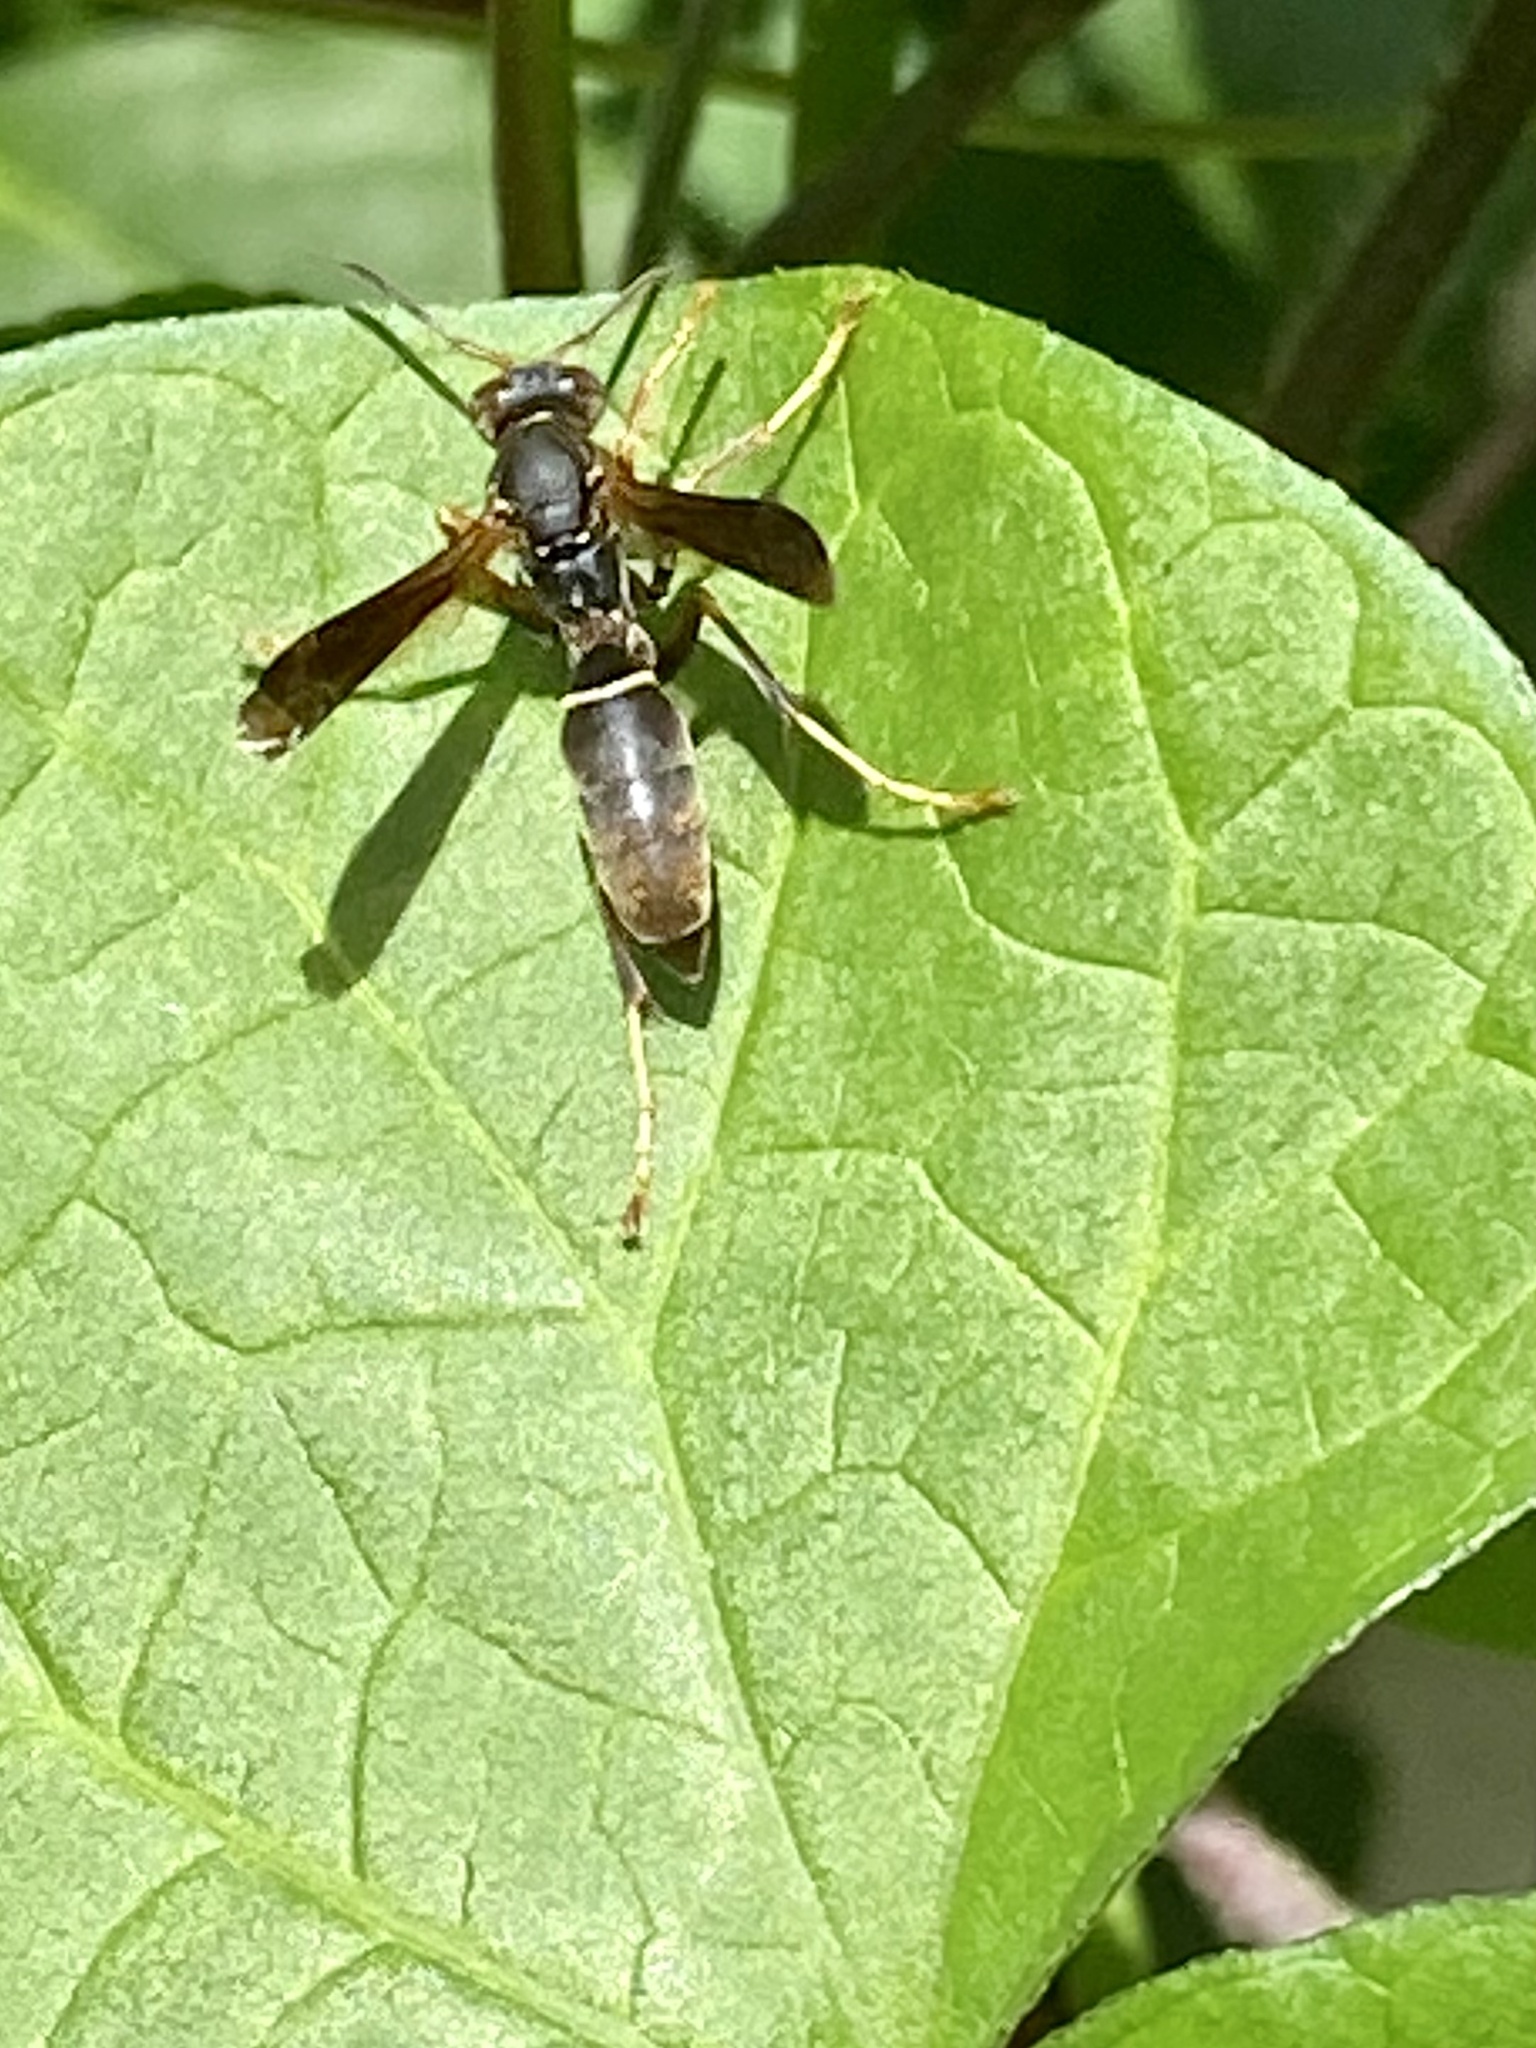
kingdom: Animalia
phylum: Arthropoda
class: Insecta
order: Hymenoptera
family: Eumenidae
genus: Polistes
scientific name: Polistes fuscatus
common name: Dark paper wasp
